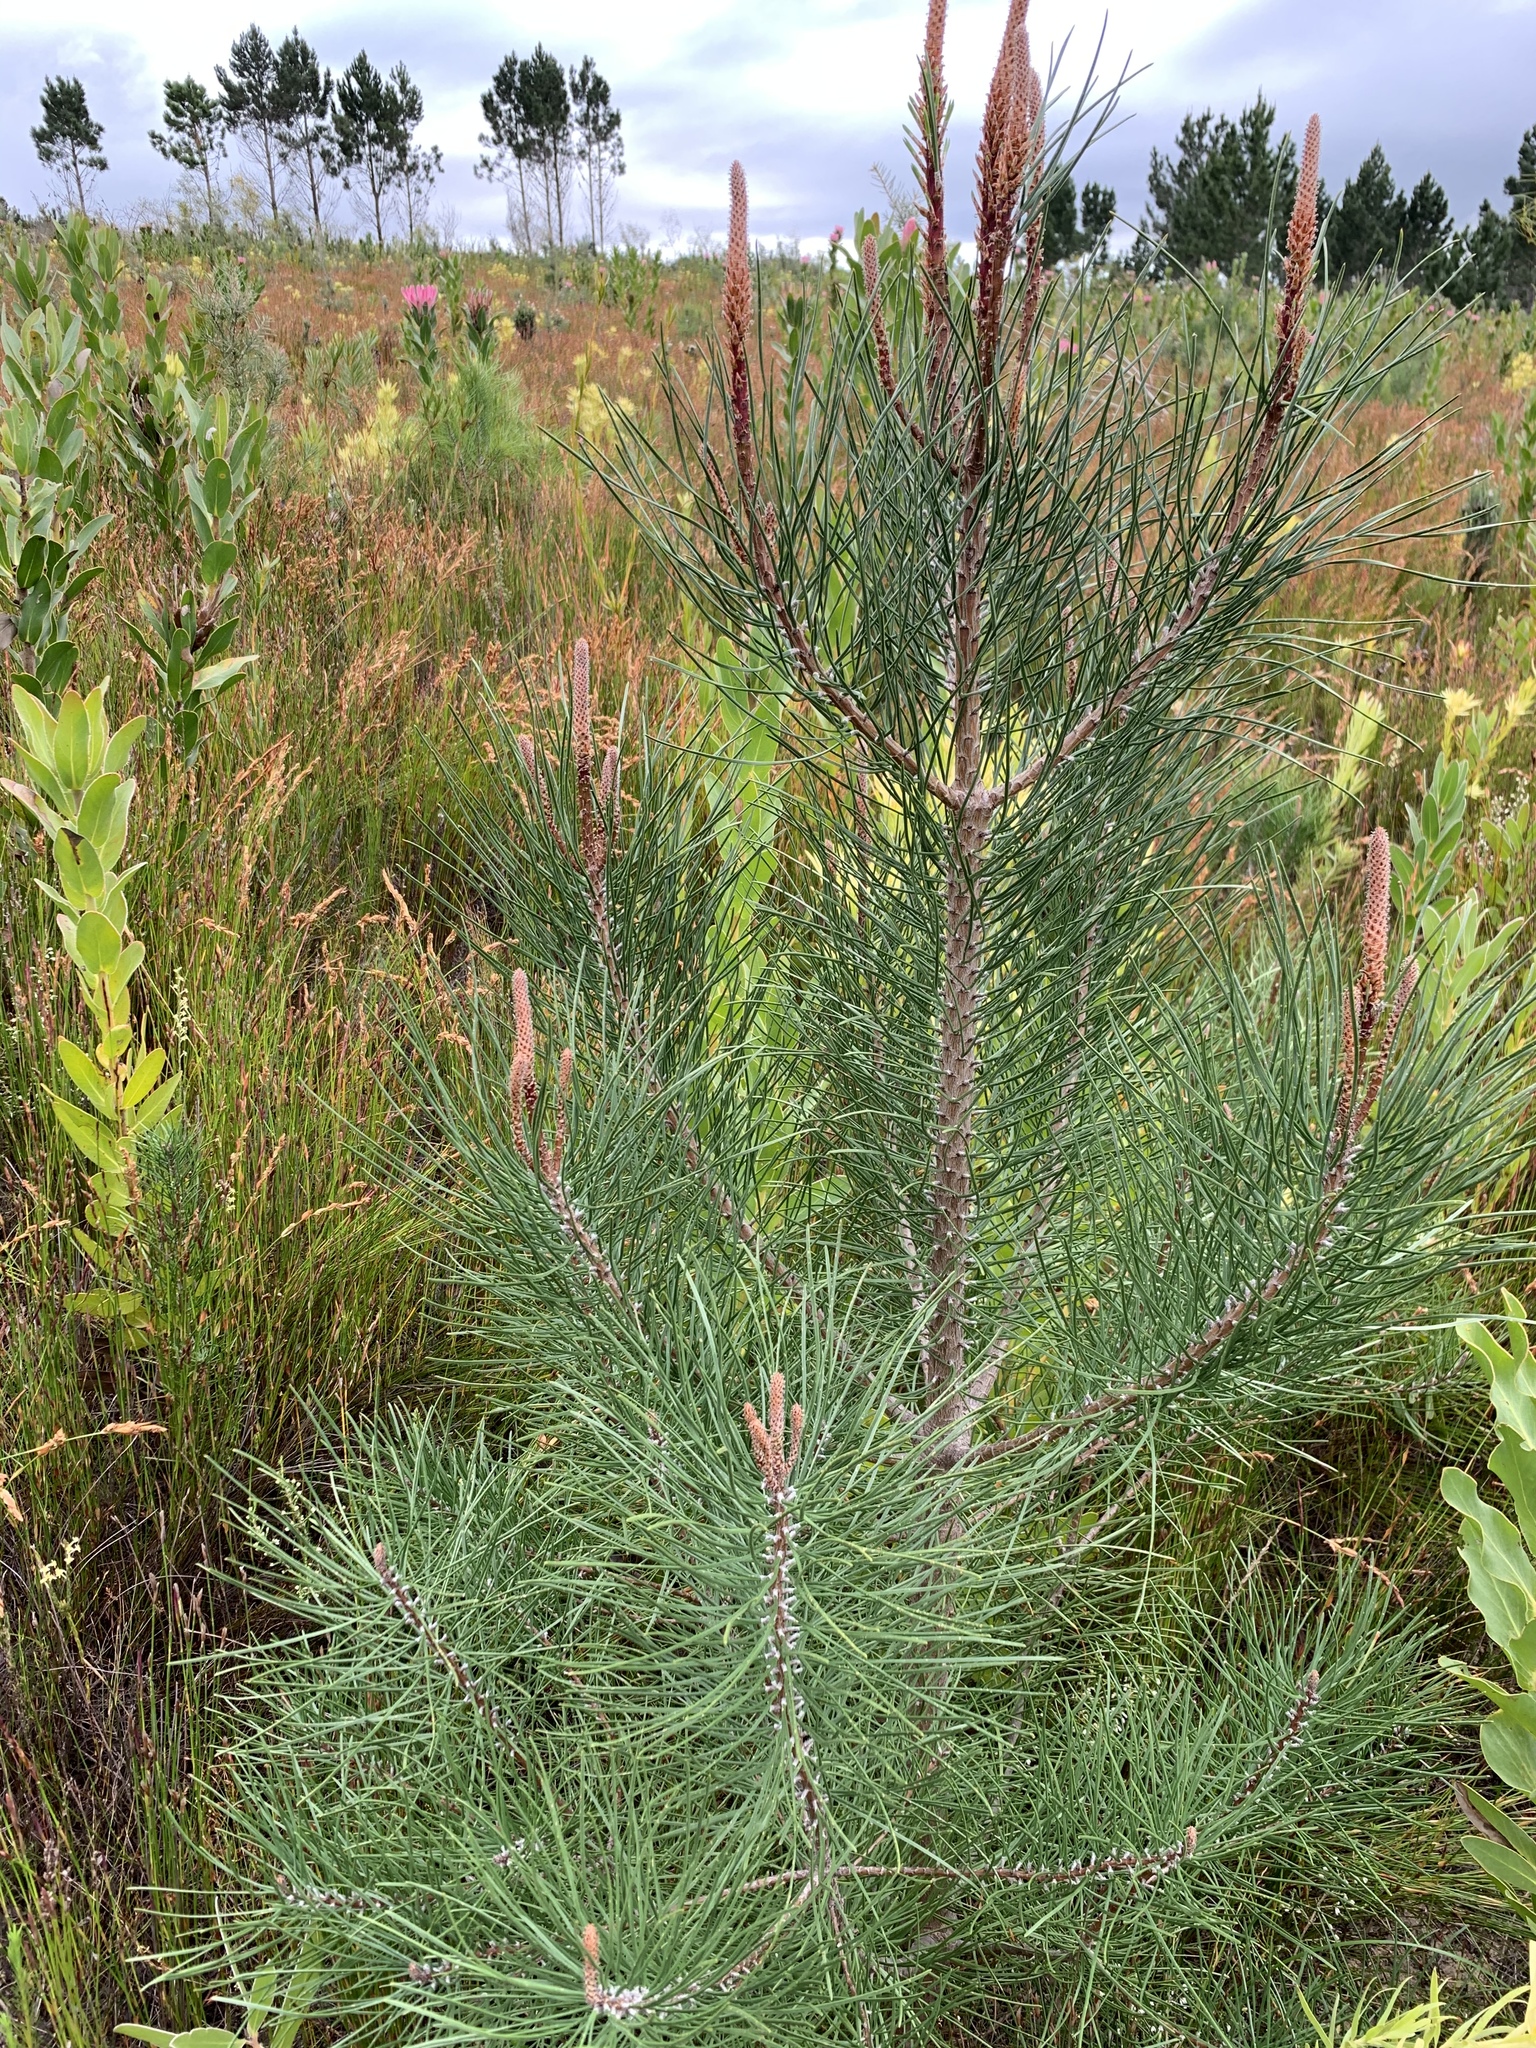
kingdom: Plantae
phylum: Tracheophyta
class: Pinopsida
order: Pinales
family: Pinaceae
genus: Pinus
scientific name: Pinus pinaster
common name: Maritime pine
